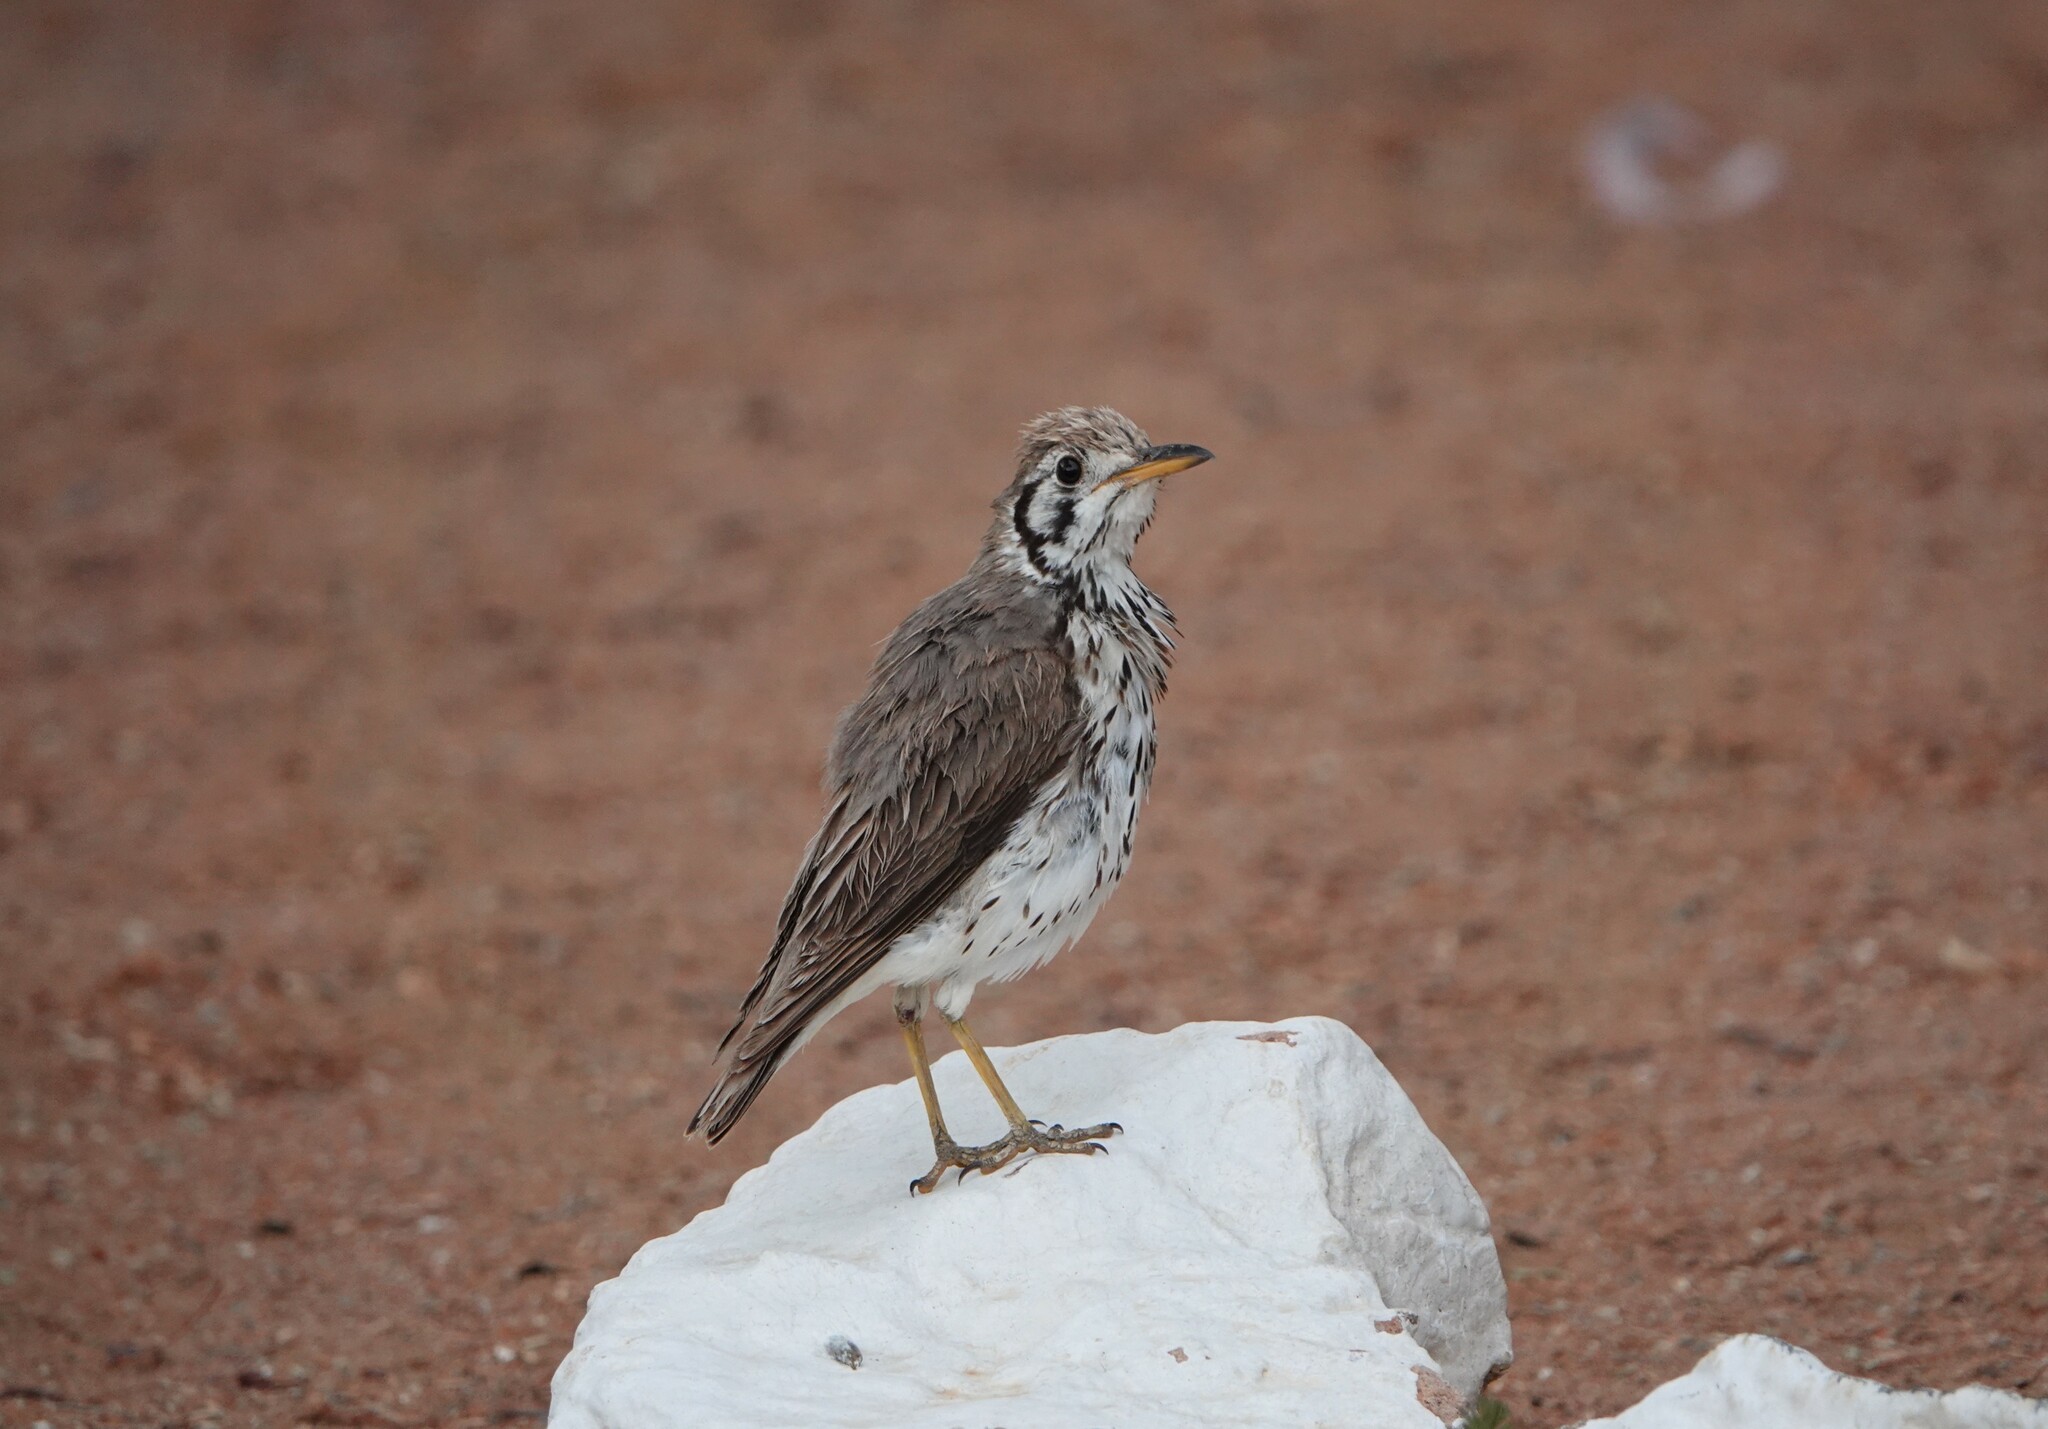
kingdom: Animalia
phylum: Chordata
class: Aves
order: Passeriformes
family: Turdidae
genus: Psophocichla
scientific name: Psophocichla litsitsirupa
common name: Groundscraper thrush
